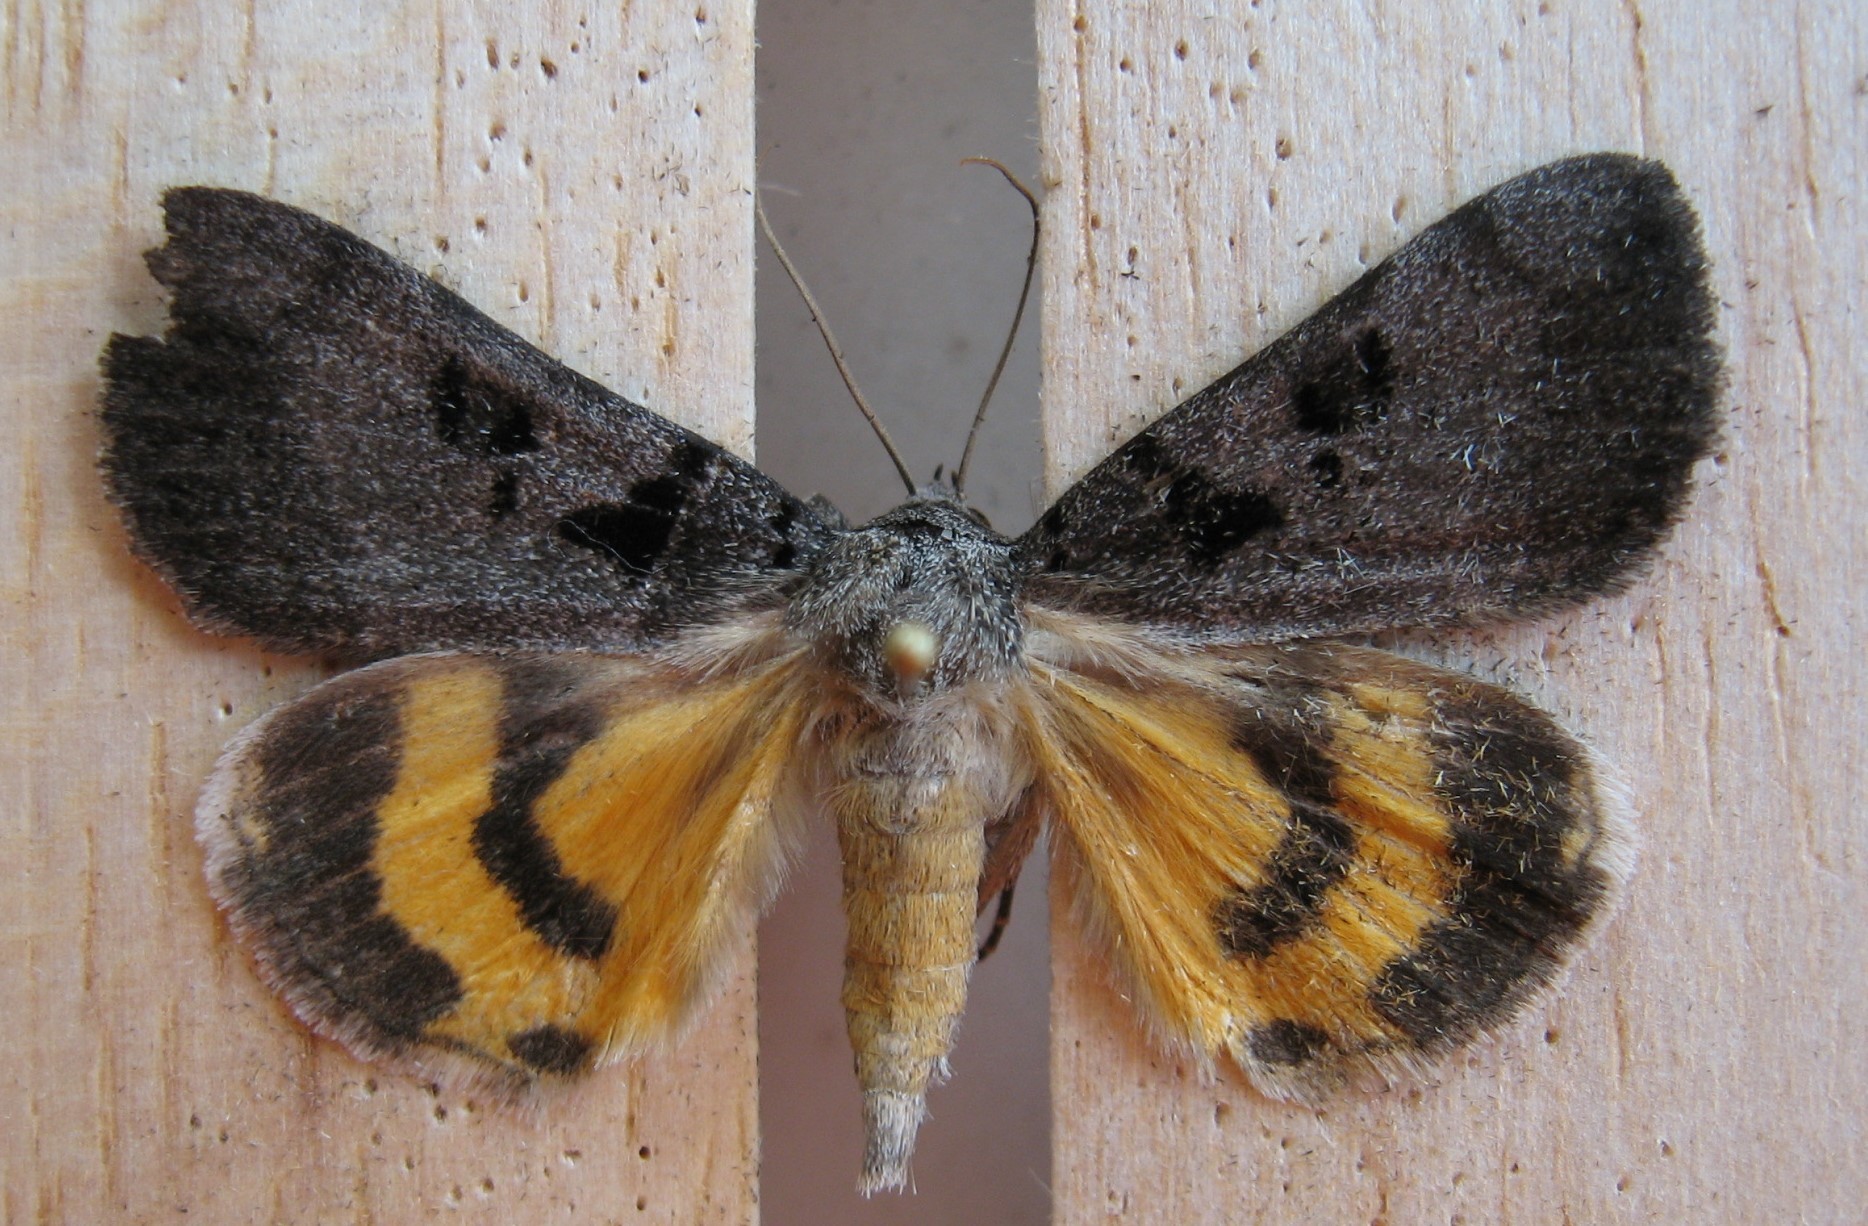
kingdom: Animalia
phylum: Arthropoda
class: Insecta
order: Lepidoptera
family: Erebidae
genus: Catocala
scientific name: Catocala whitneyi
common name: Whitney's underwing
